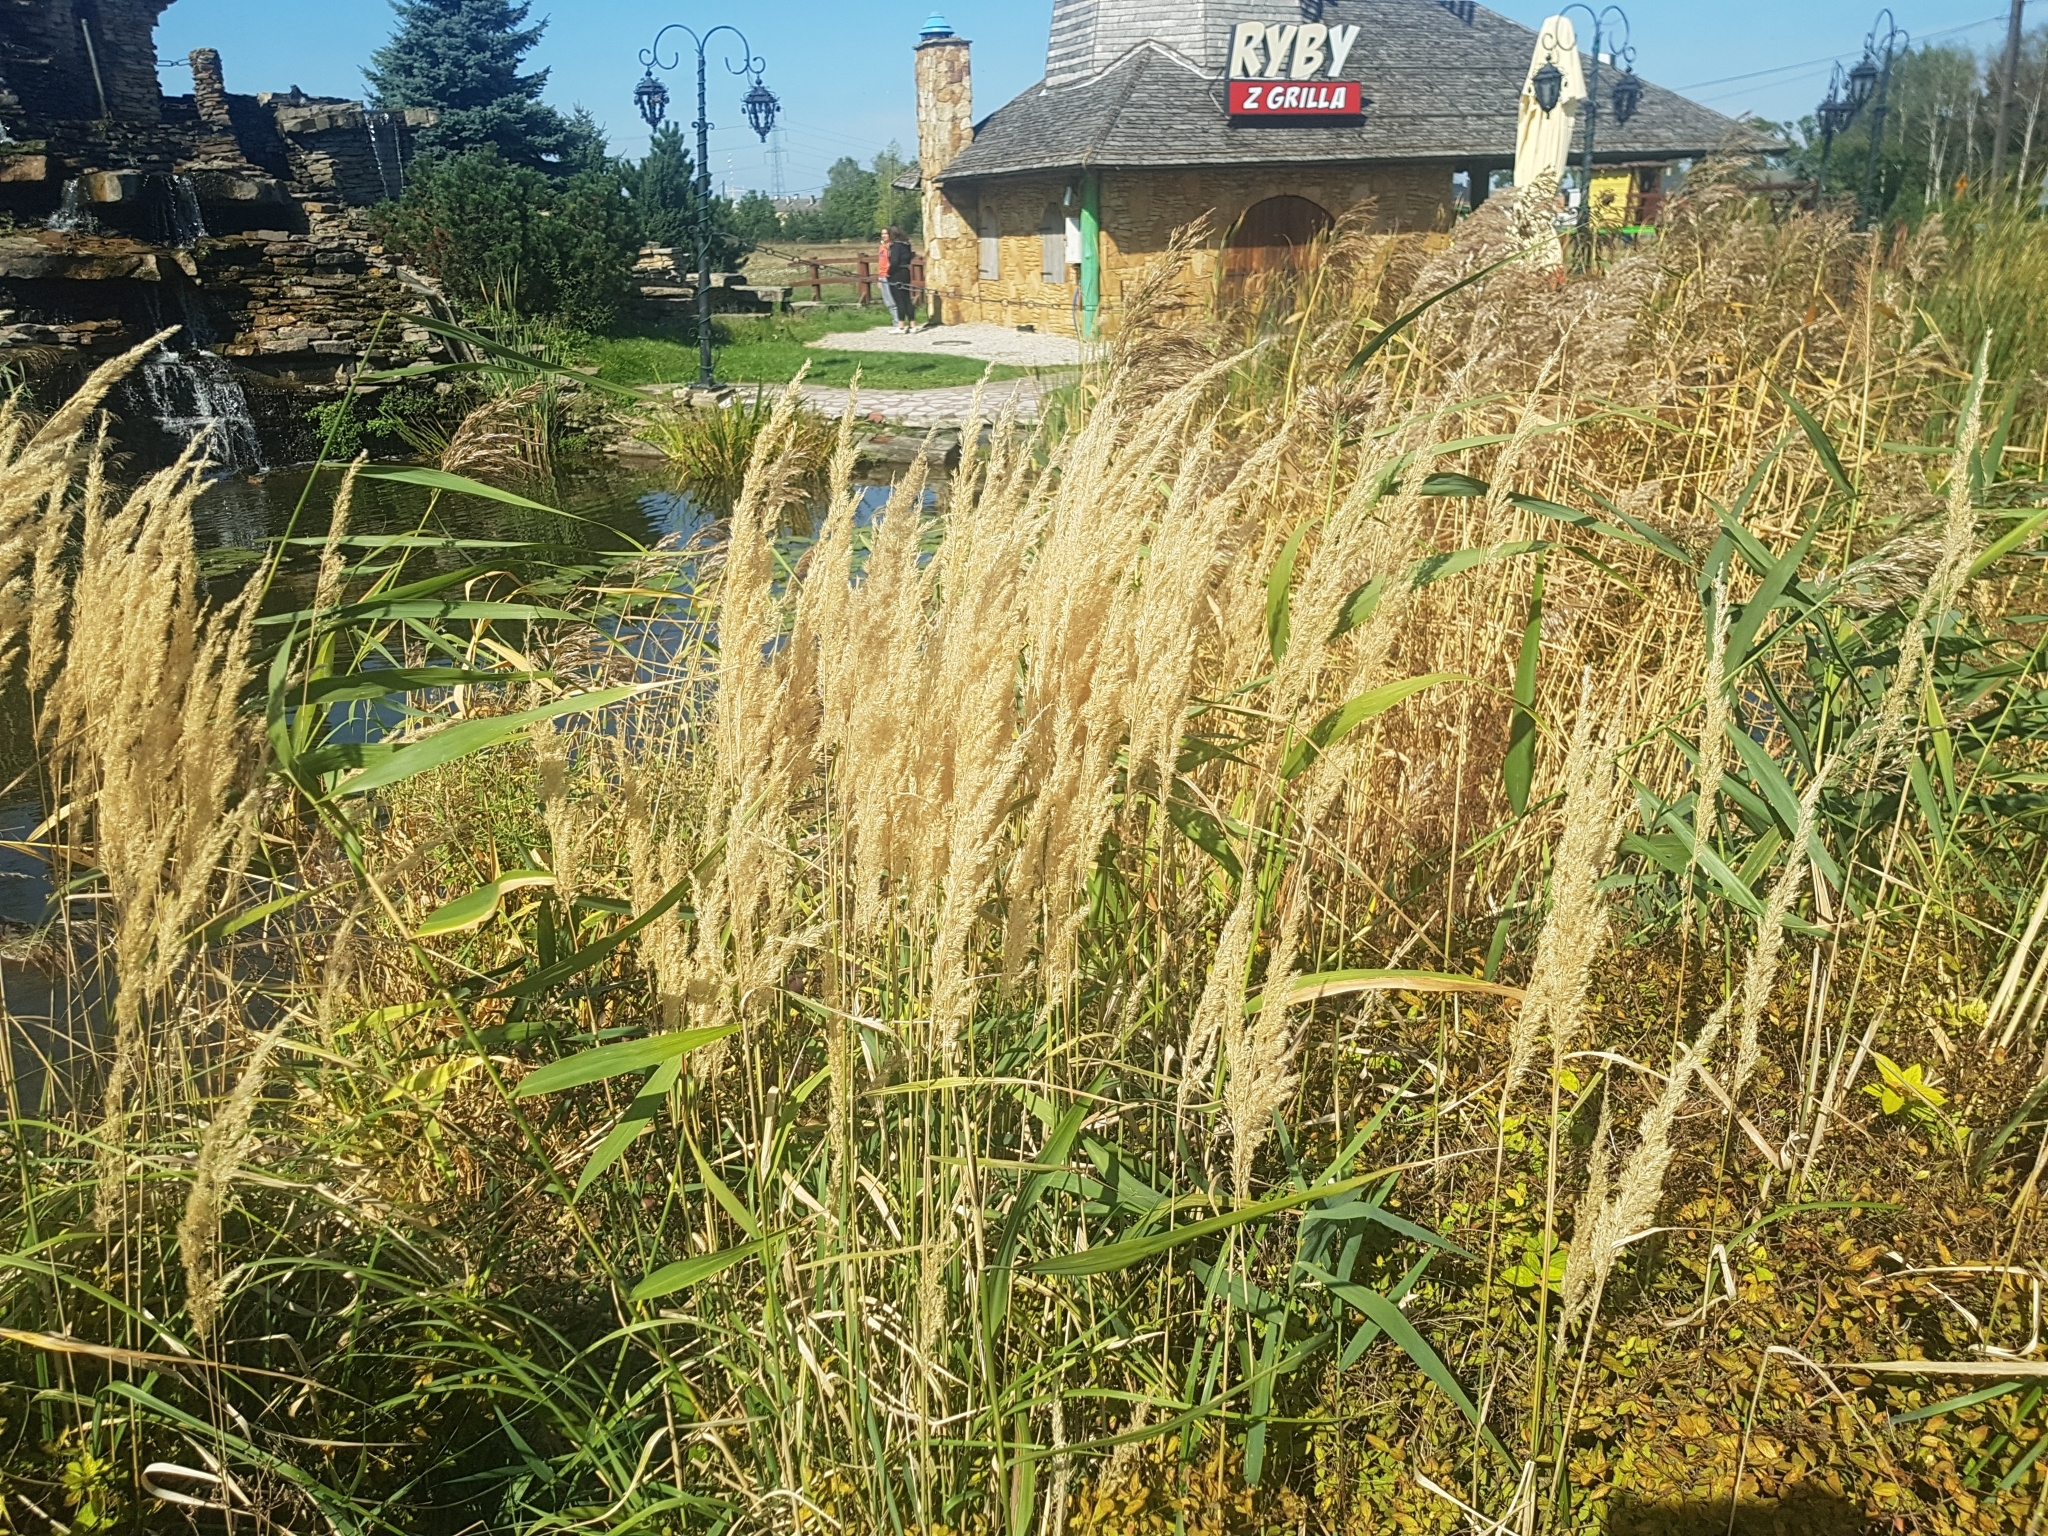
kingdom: Plantae
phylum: Tracheophyta
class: Liliopsida
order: Poales
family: Poaceae
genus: Calamagrostis
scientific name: Calamagrostis epigejos
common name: Wood small-reed
